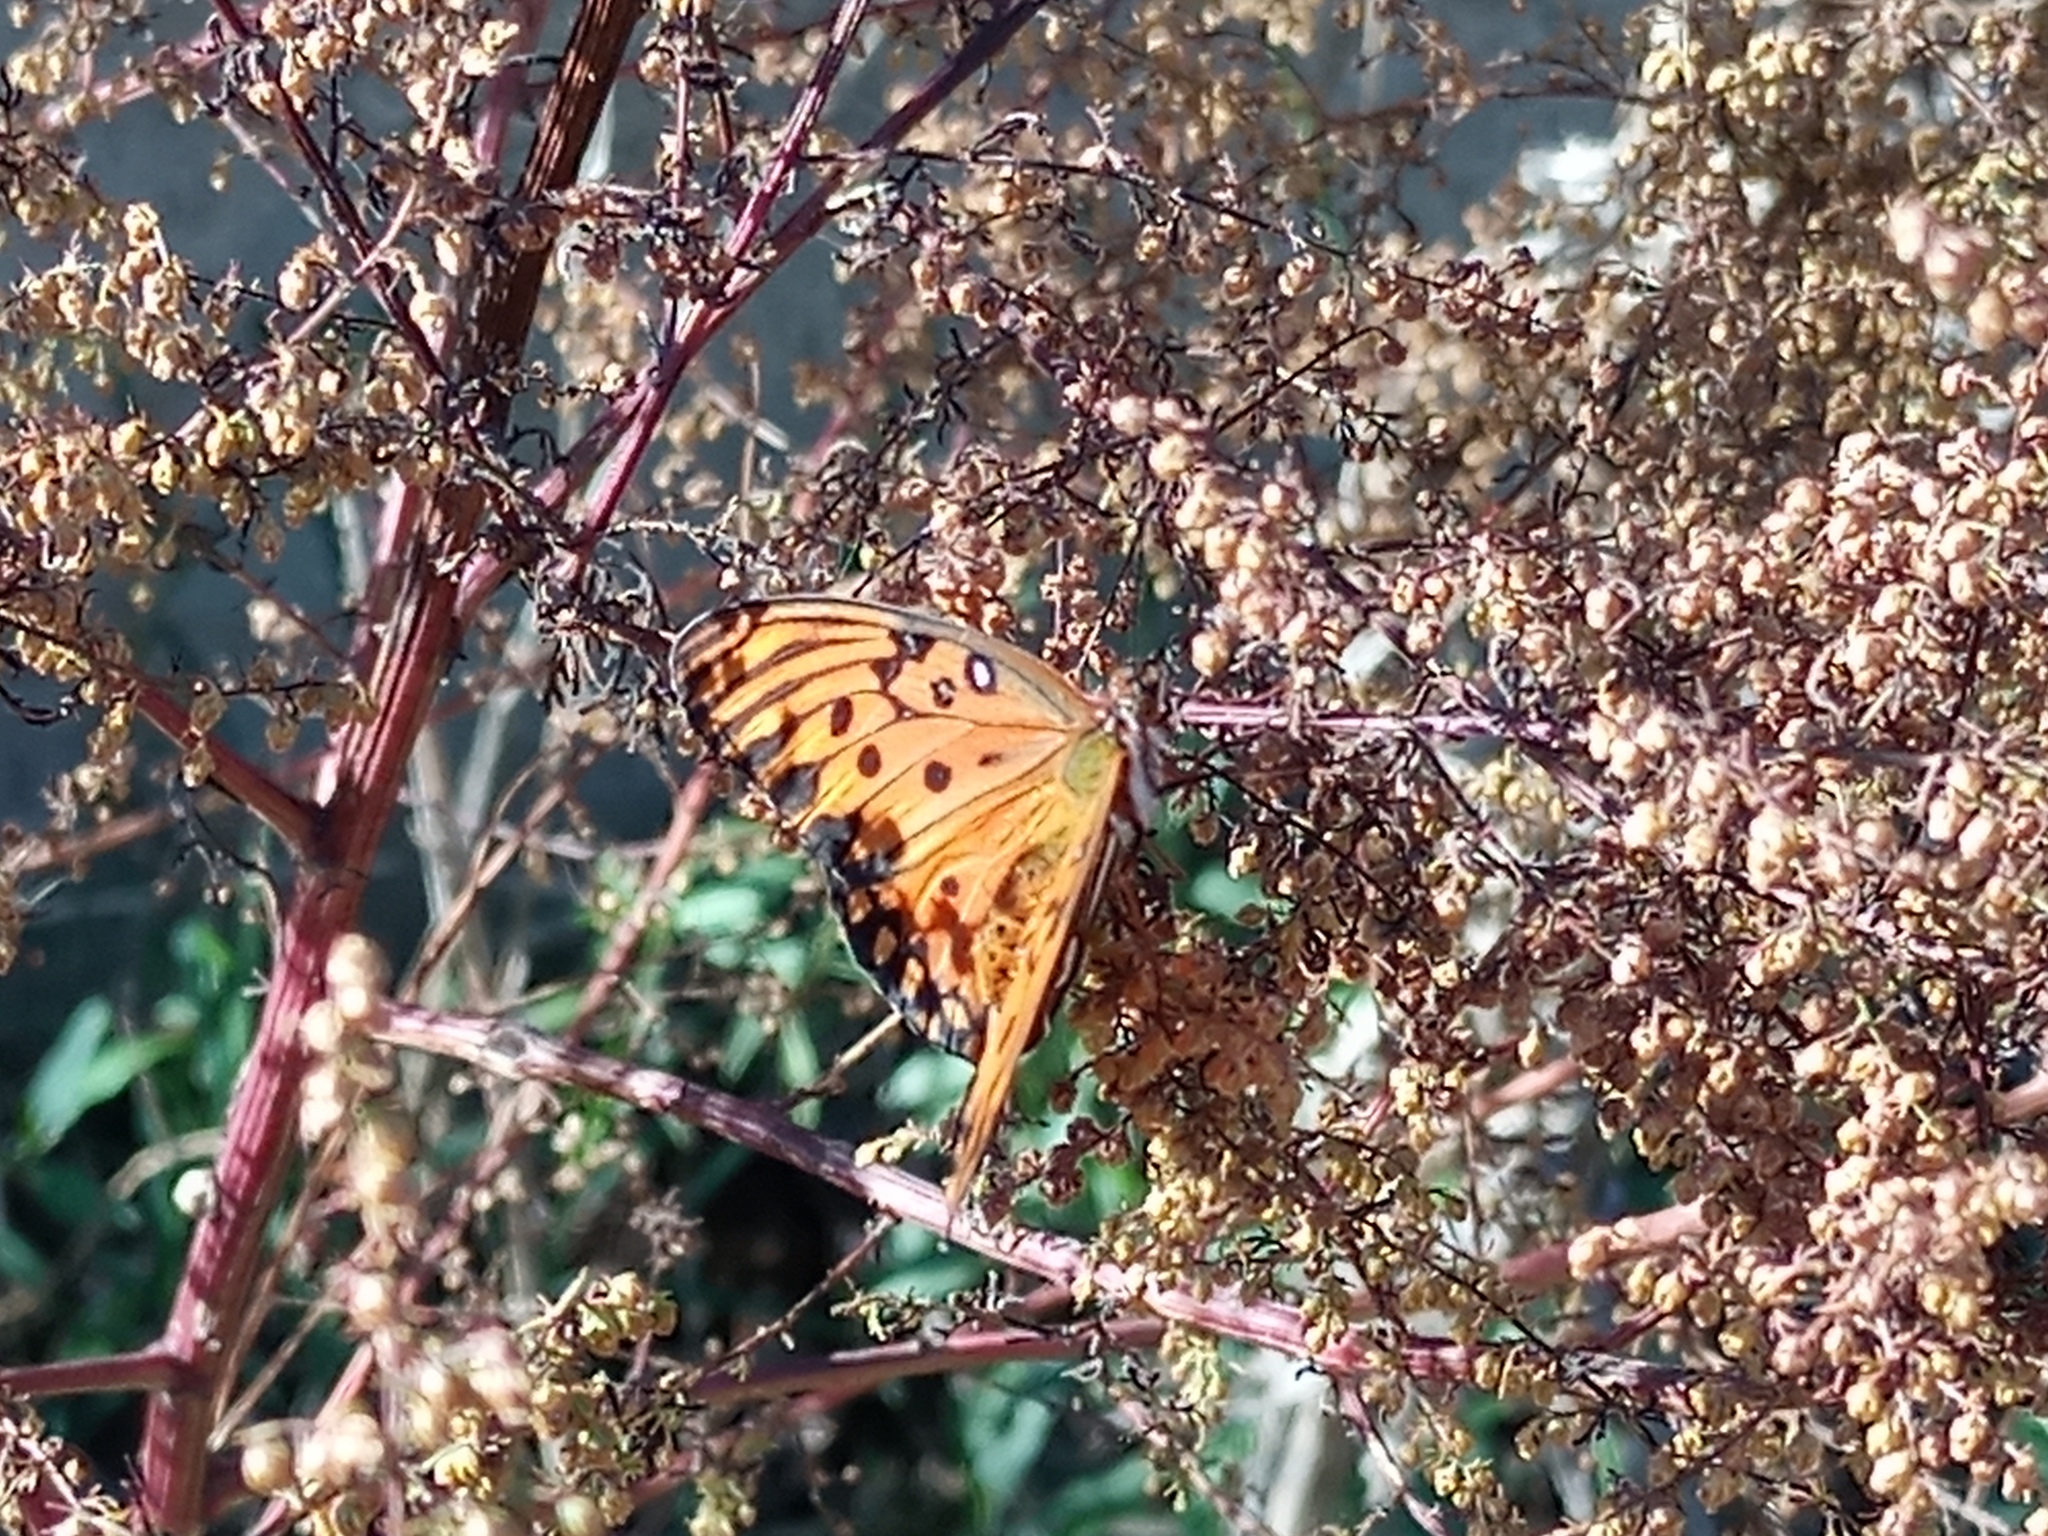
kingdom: Animalia
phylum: Arthropoda
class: Insecta
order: Lepidoptera
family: Nymphalidae
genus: Dione
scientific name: Dione vanillae
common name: Gulf fritillary
